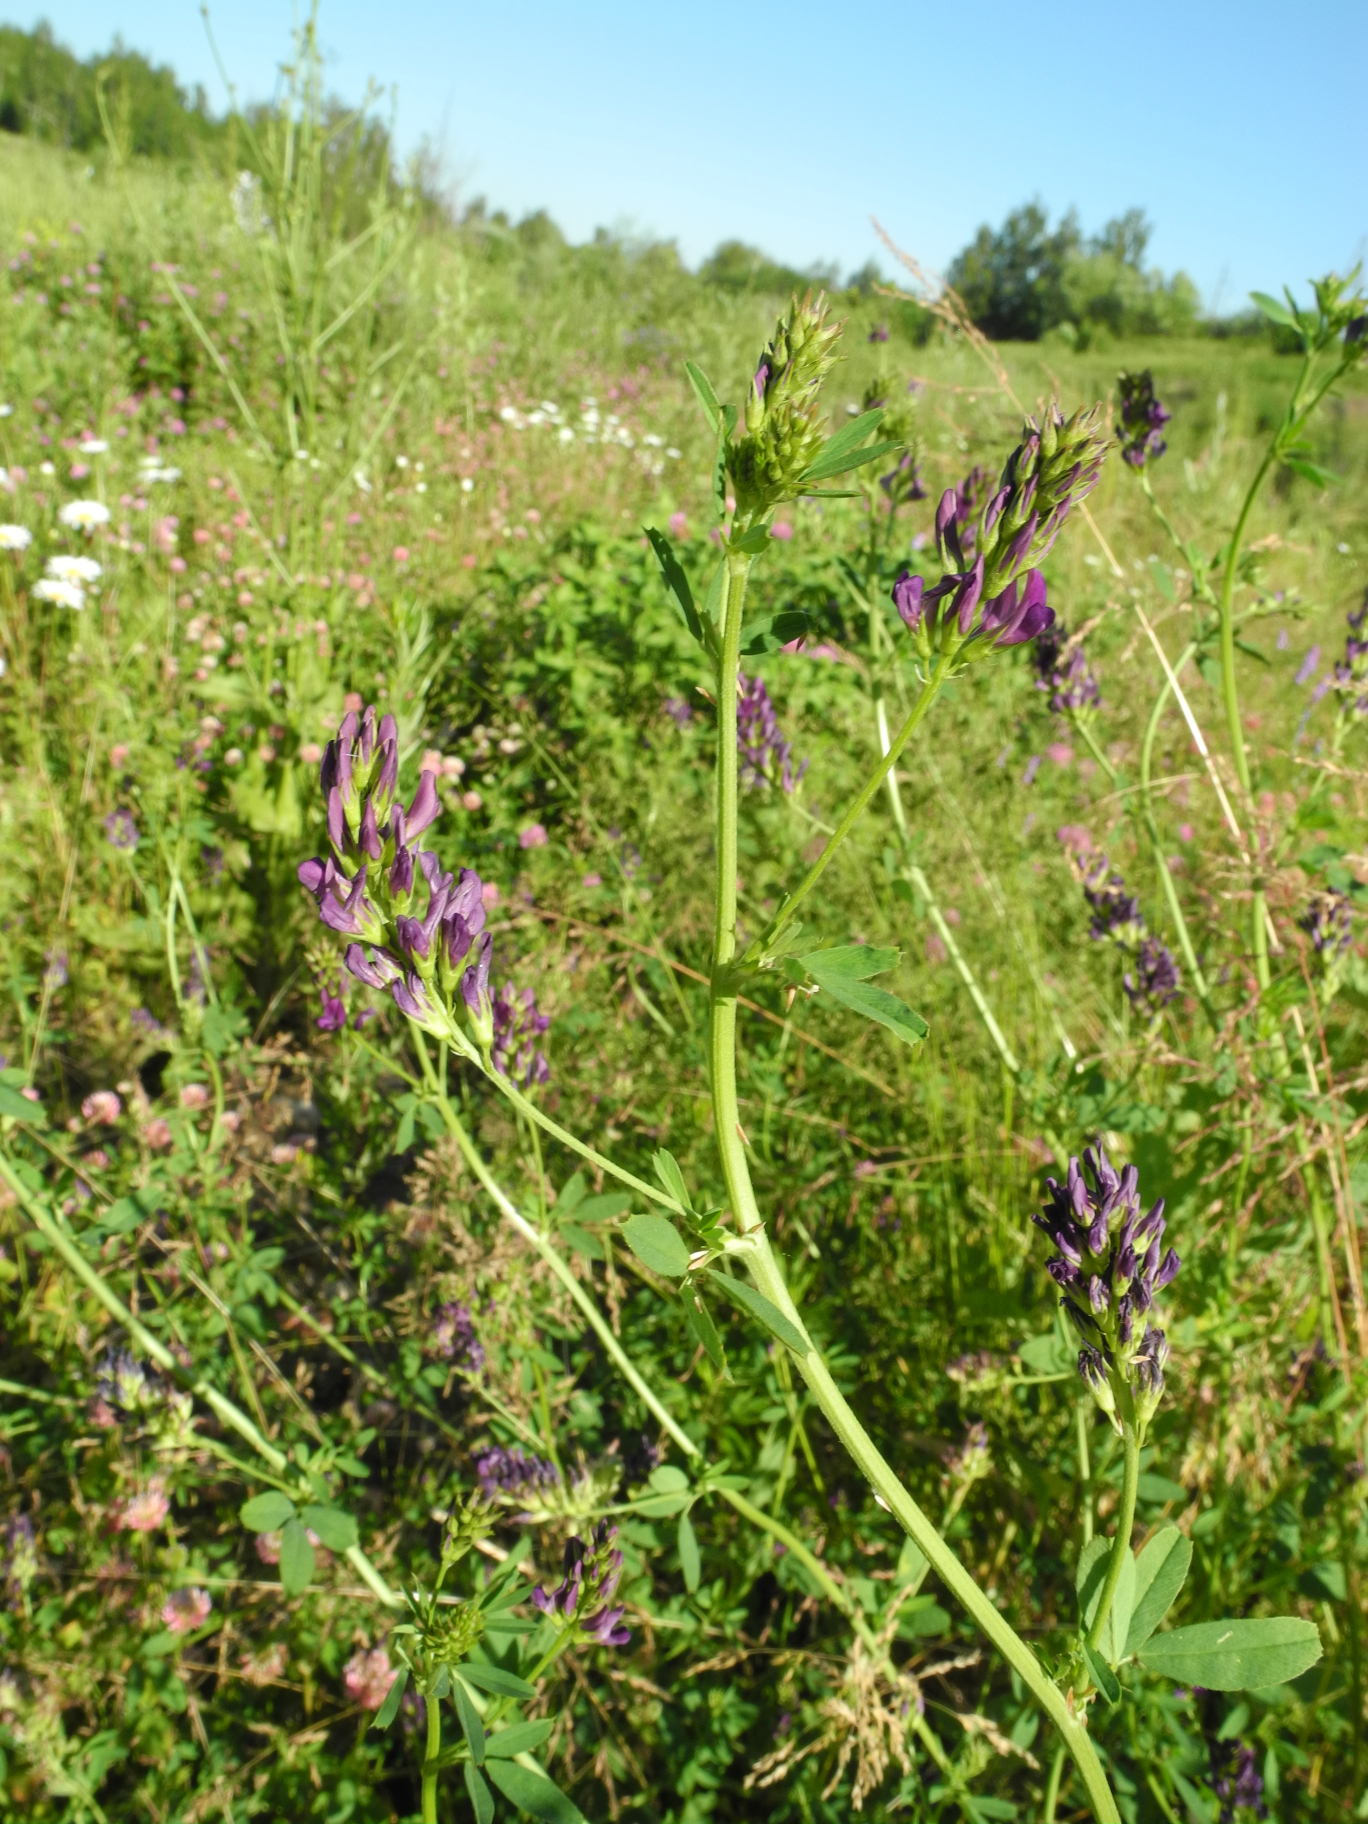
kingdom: Plantae
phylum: Tracheophyta
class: Magnoliopsida
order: Fabales
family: Fabaceae
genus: Medicago
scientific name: Medicago sativa
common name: Alfalfa
